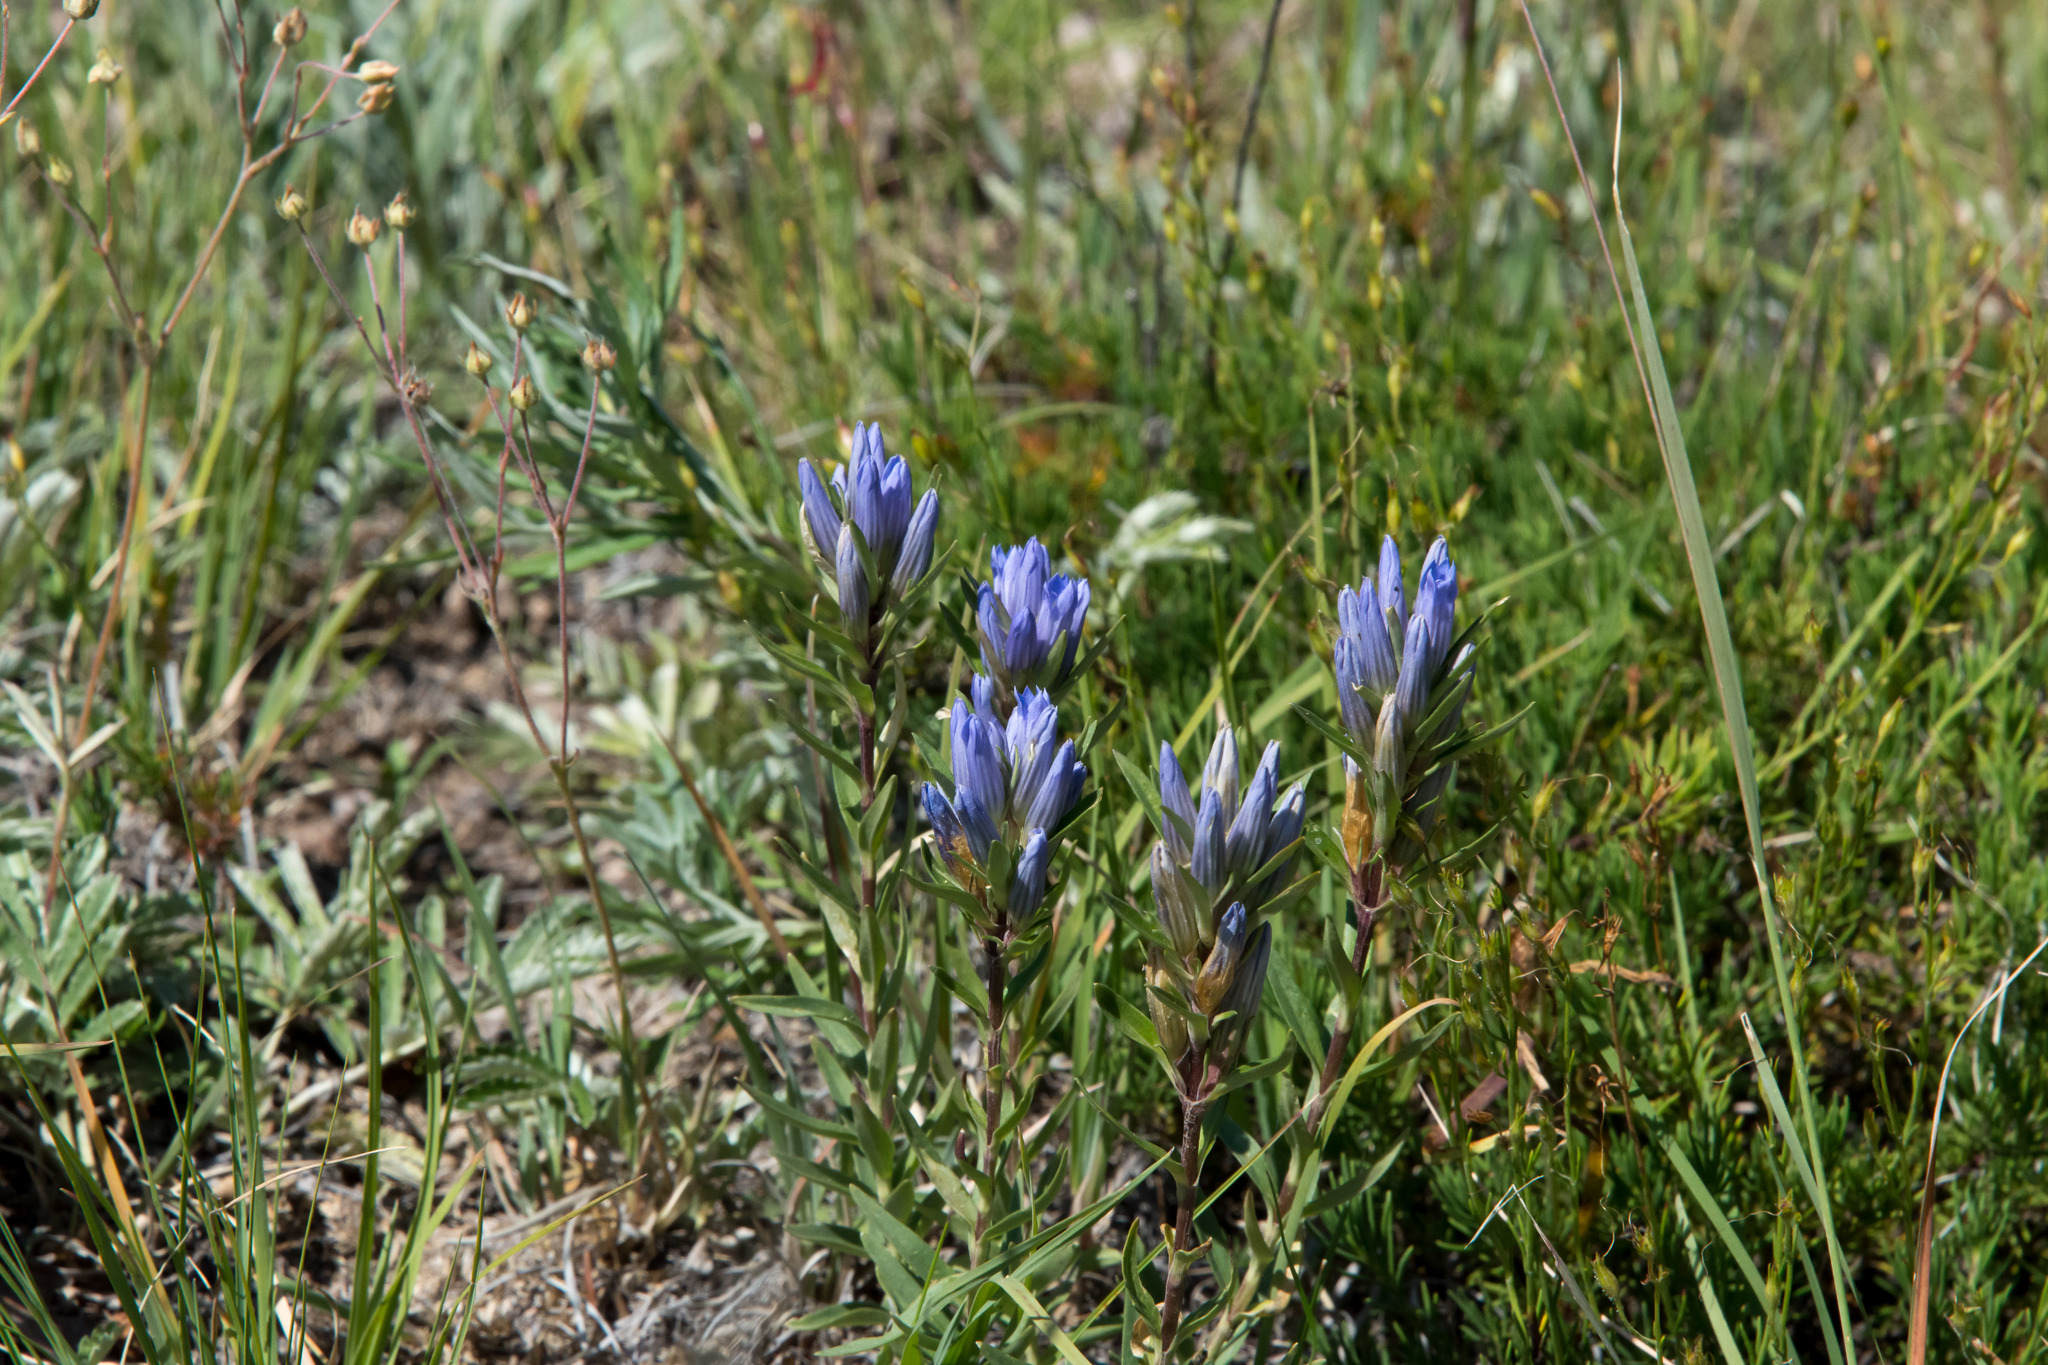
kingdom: Plantae
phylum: Tracheophyta
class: Magnoliopsida
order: Gentianales
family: Gentianaceae
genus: Gentiana
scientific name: Gentiana affinis
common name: Rocky mountain gentian
